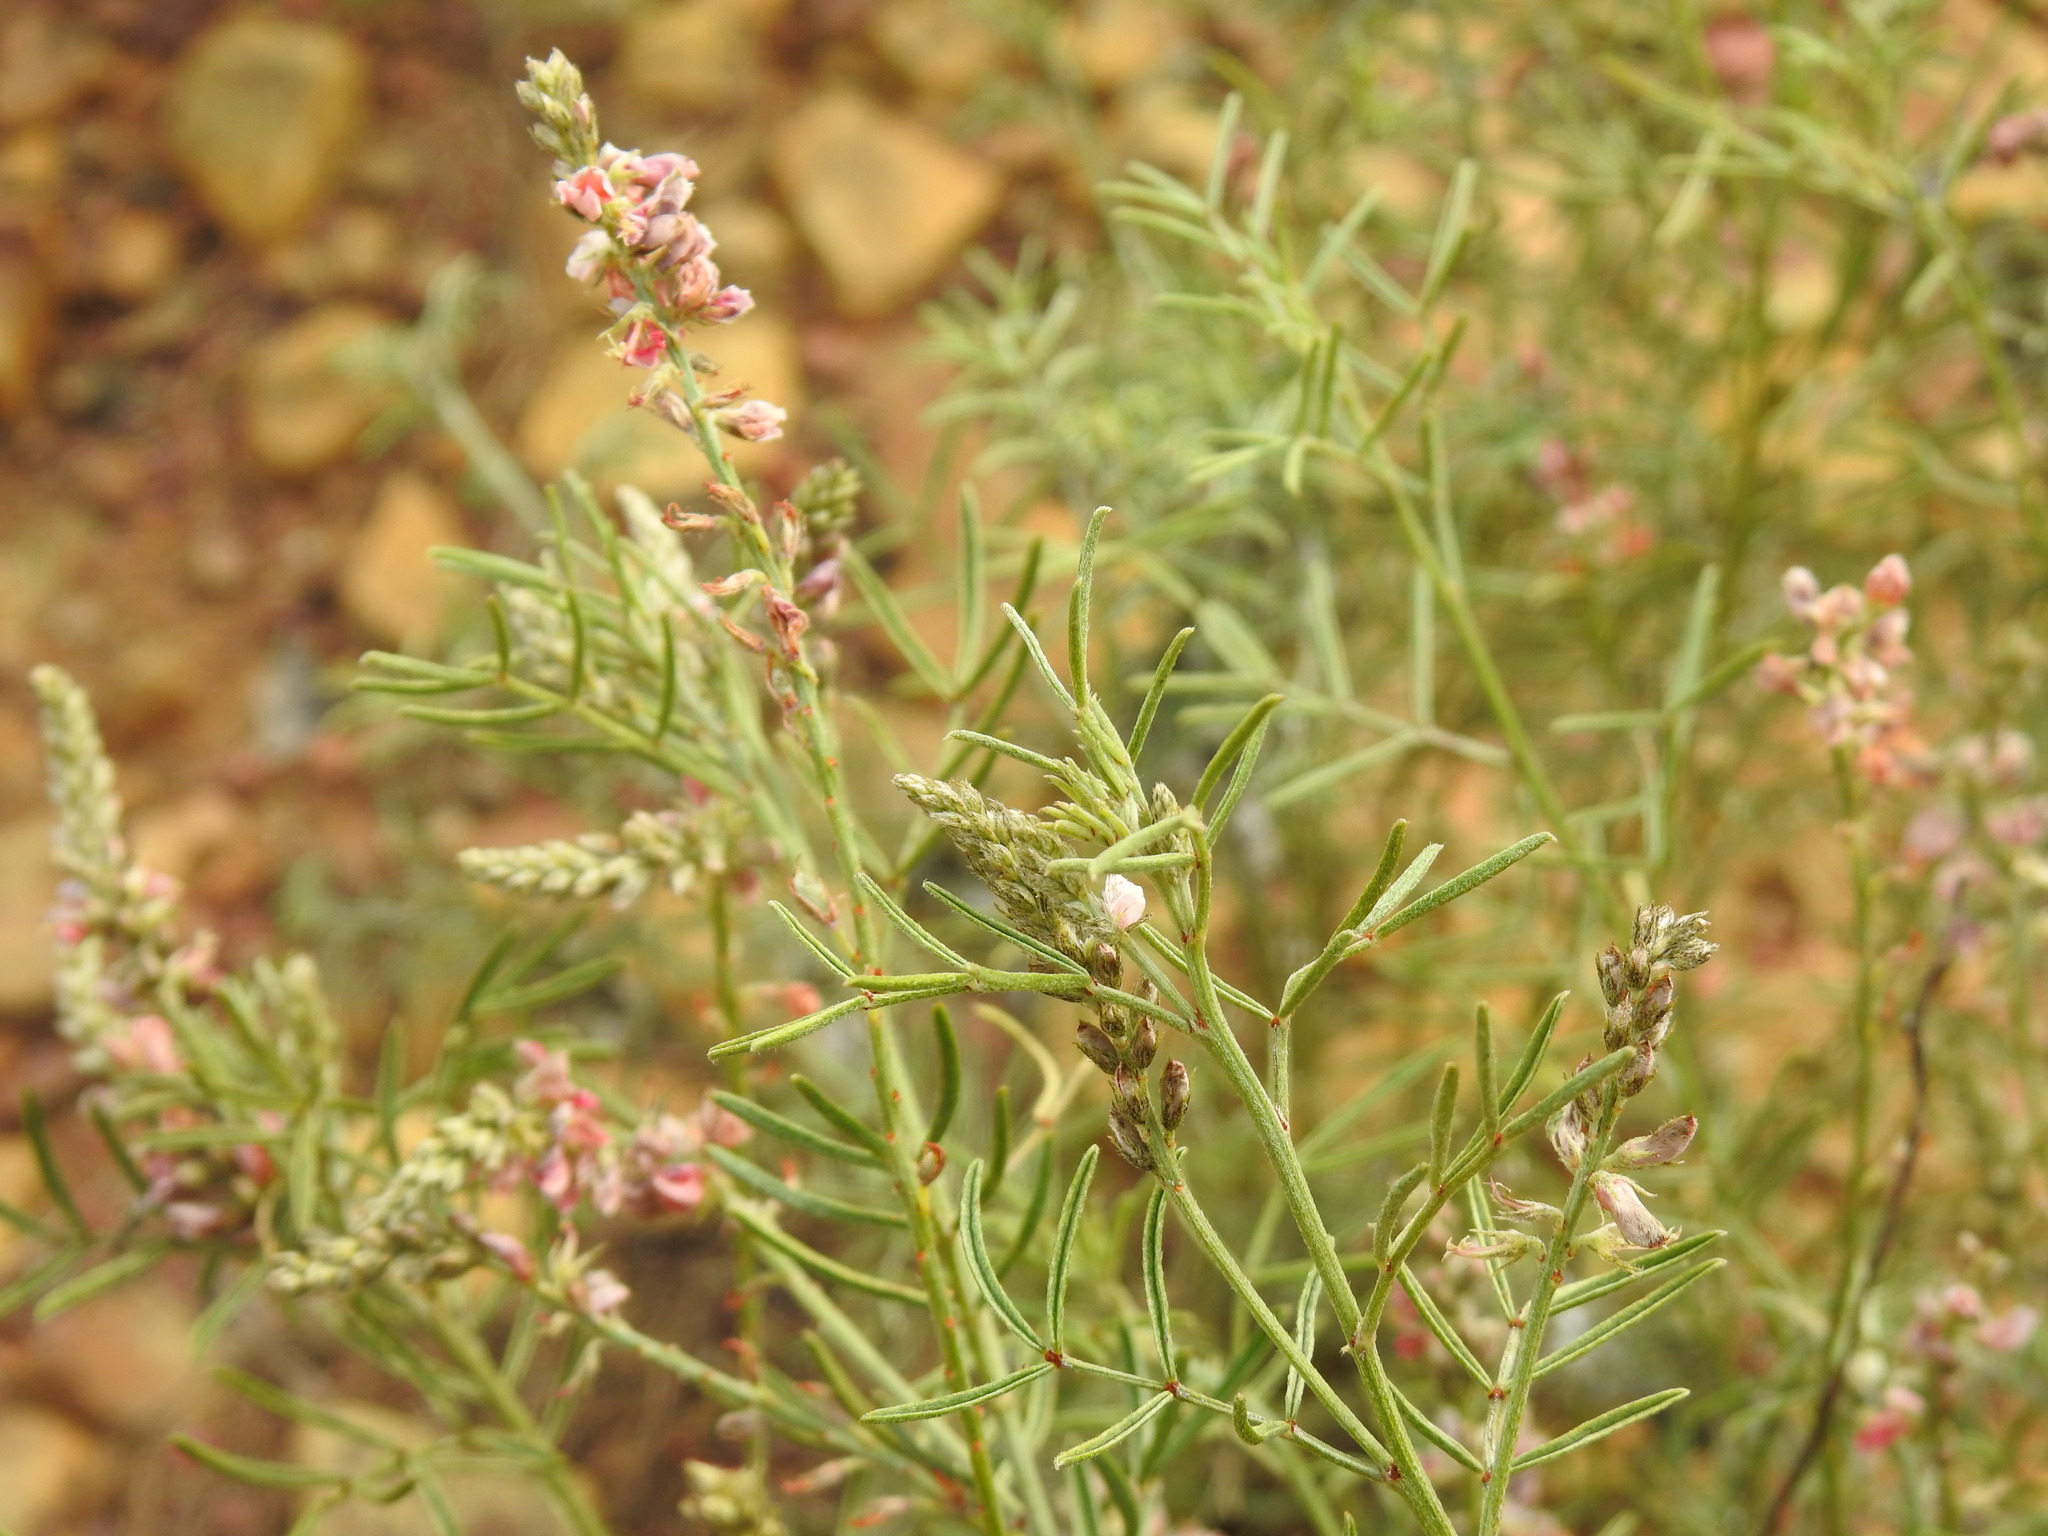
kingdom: Plantae
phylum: Tracheophyta
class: Magnoliopsida
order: Fabales
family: Fabaceae
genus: Indigofera
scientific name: Indigofera pretoriana
